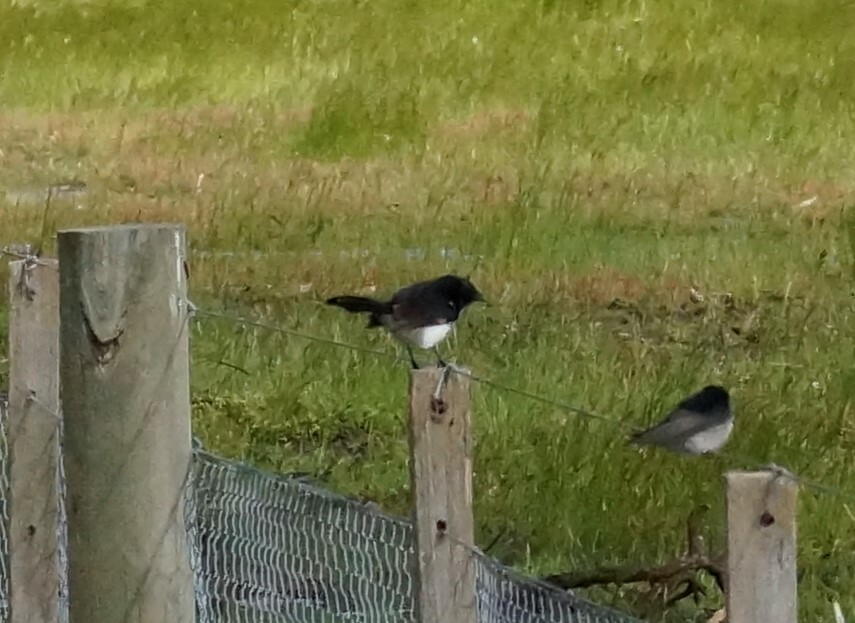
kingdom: Animalia
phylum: Chordata
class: Aves
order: Passeriformes
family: Rhipiduridae
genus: Rhipidura
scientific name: Rhipidura leucophrys
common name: Willie wagtail
